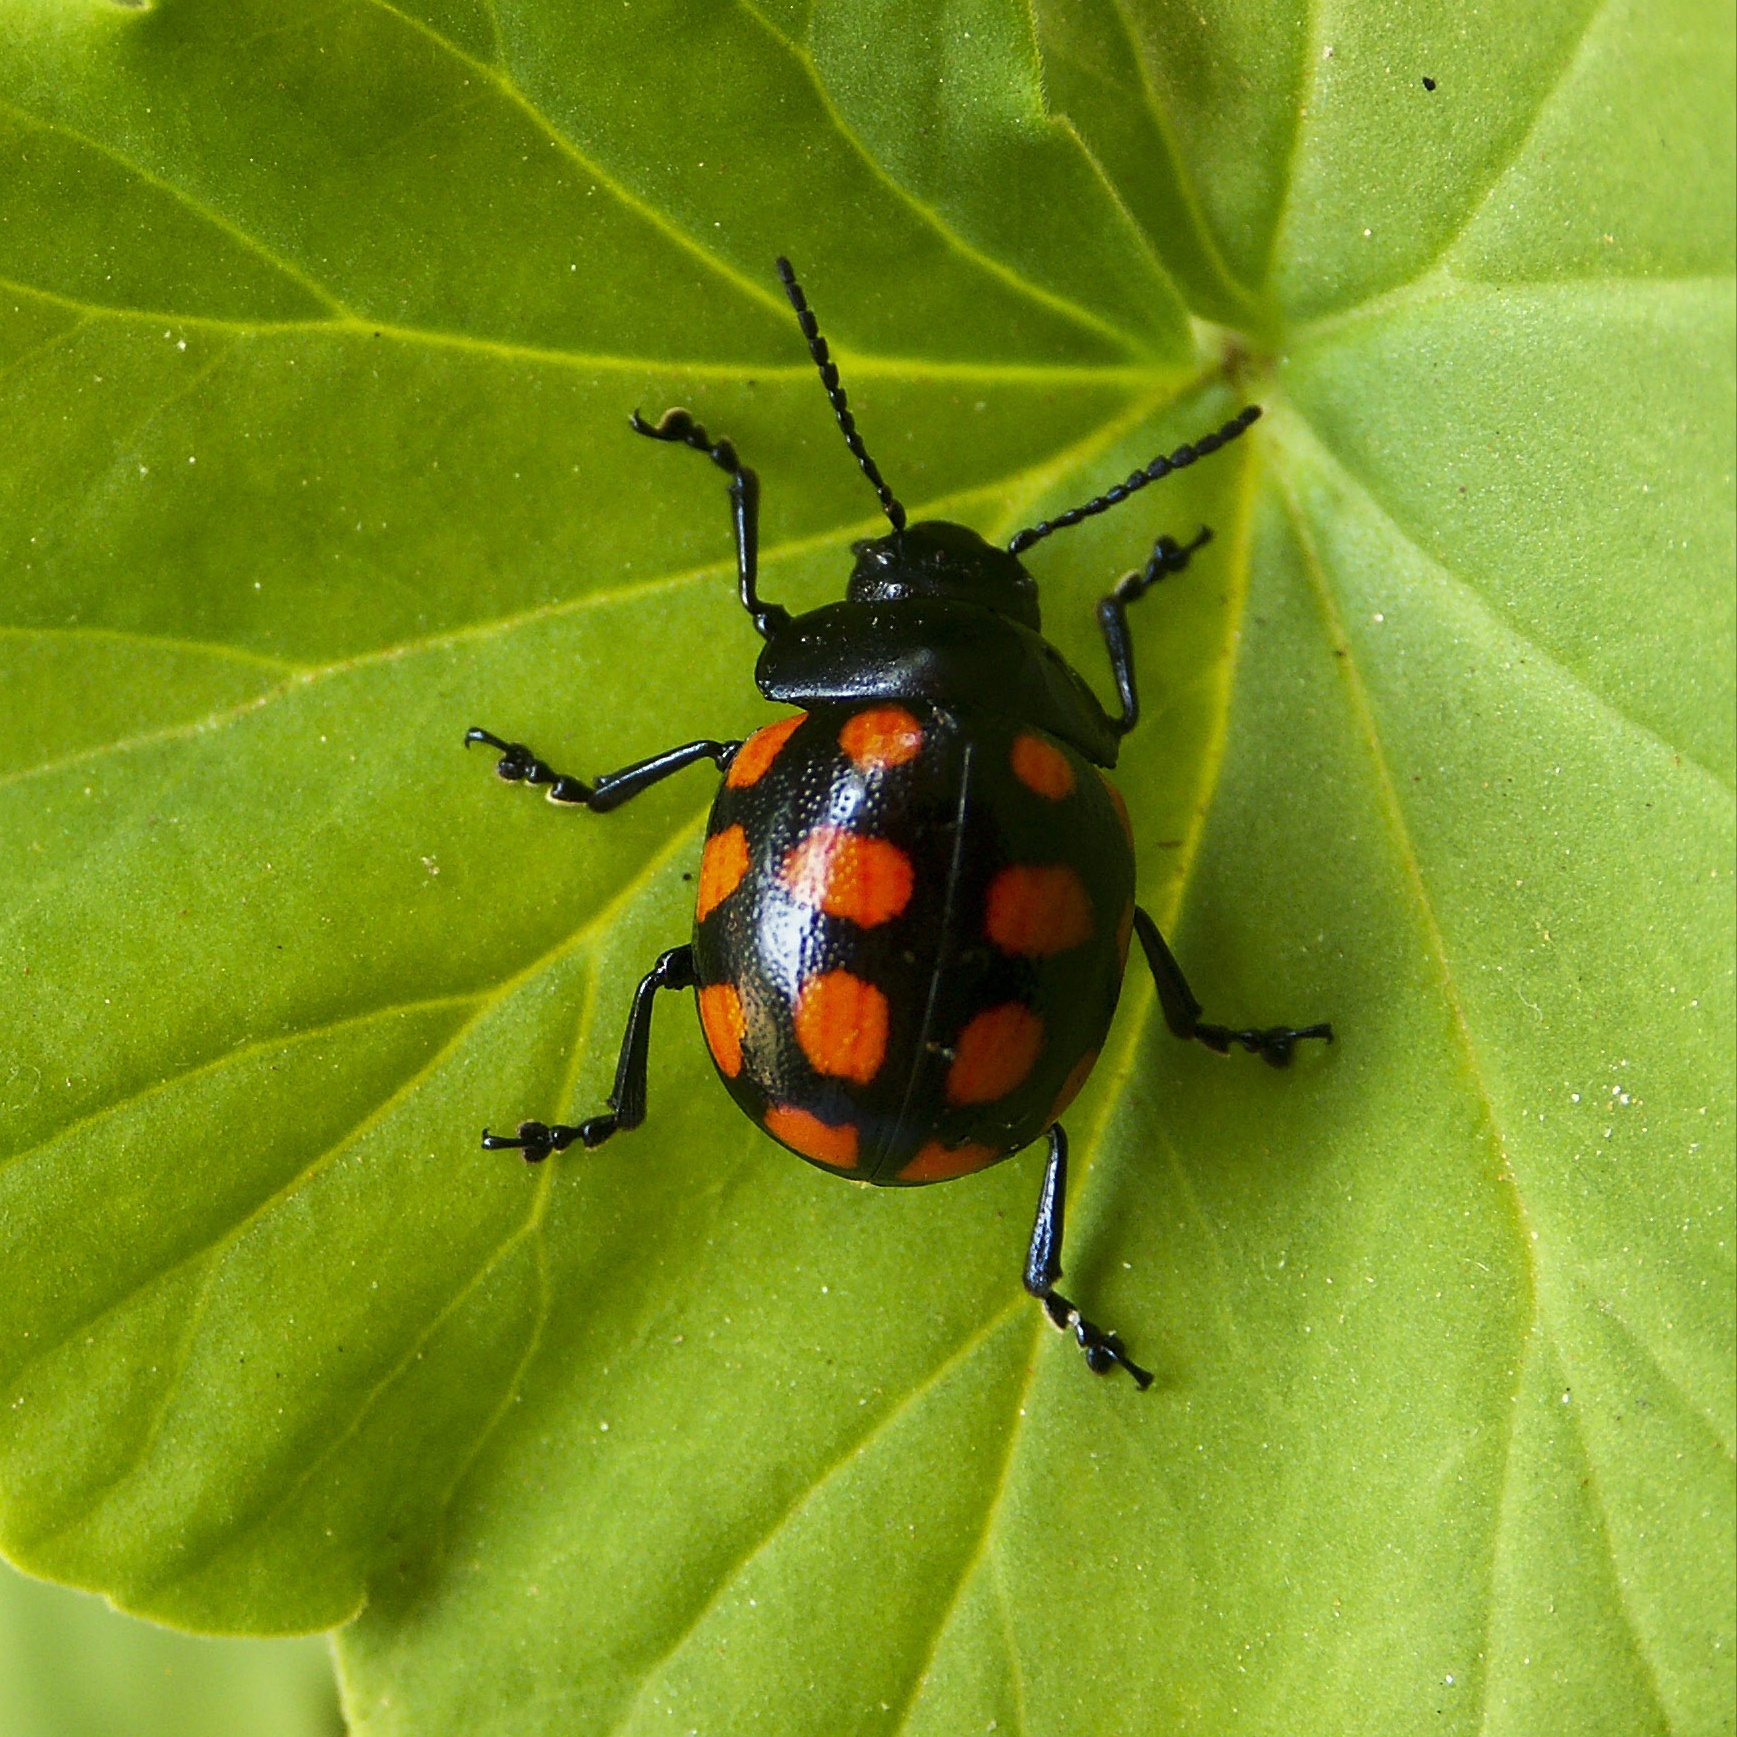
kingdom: Animalia
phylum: Arthropoda
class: Insecta
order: Coleoptera
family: Chrysomelidae
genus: Platyphora
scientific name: Platyphora
